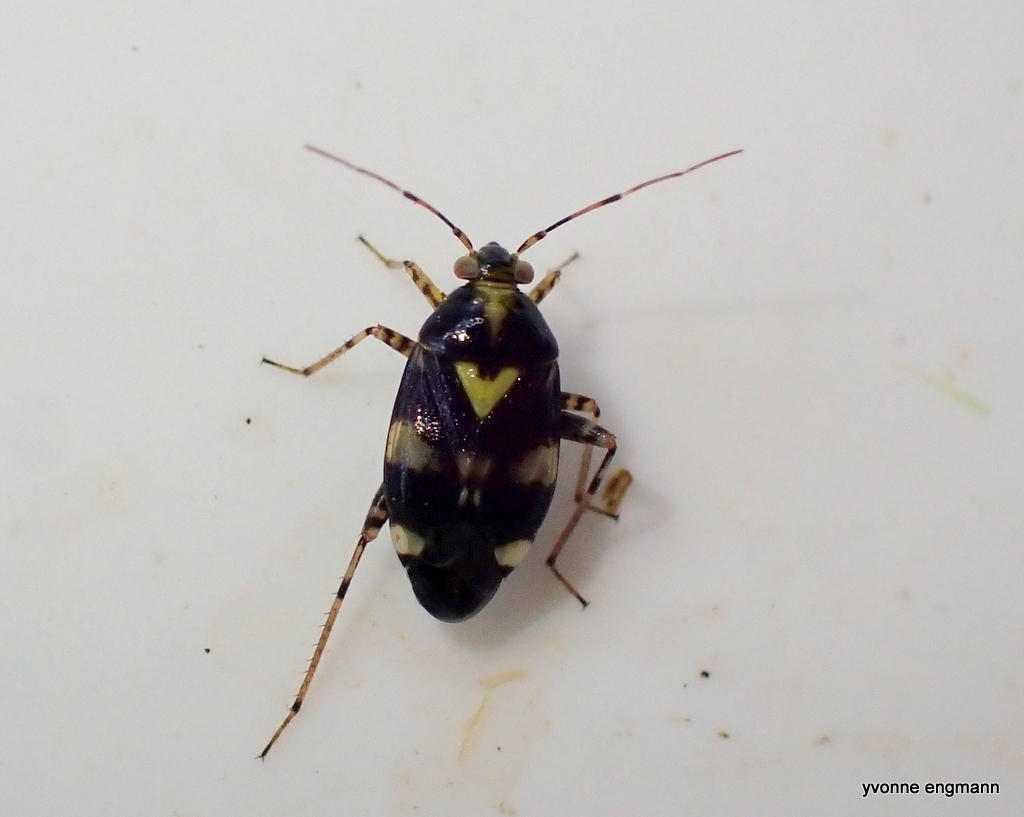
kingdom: Animalia
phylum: Arthropoda
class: Insecta
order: Hemiptera
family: Miridae
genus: Liocoris
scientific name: Liocoris tripustulatus
